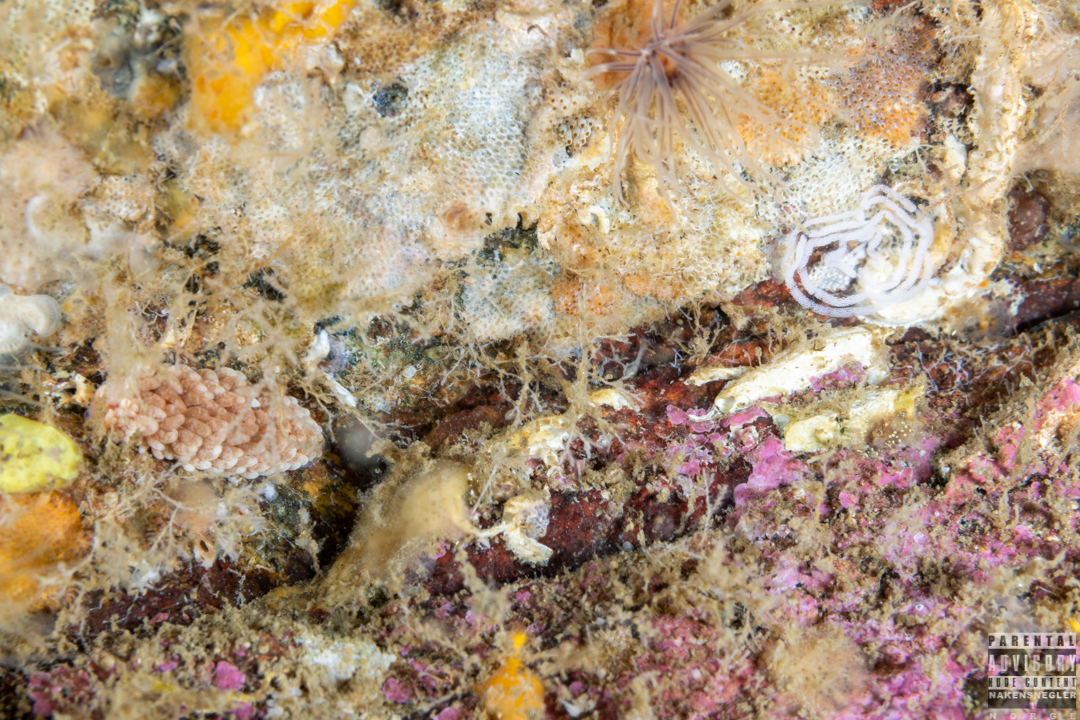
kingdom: Animalia
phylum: Mollusca
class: Gastropoda
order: Nudibranchia
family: Aeolidiidae
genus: Aeolidiella
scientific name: Aeolidiella glauca
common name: Orange-brown aeolid
